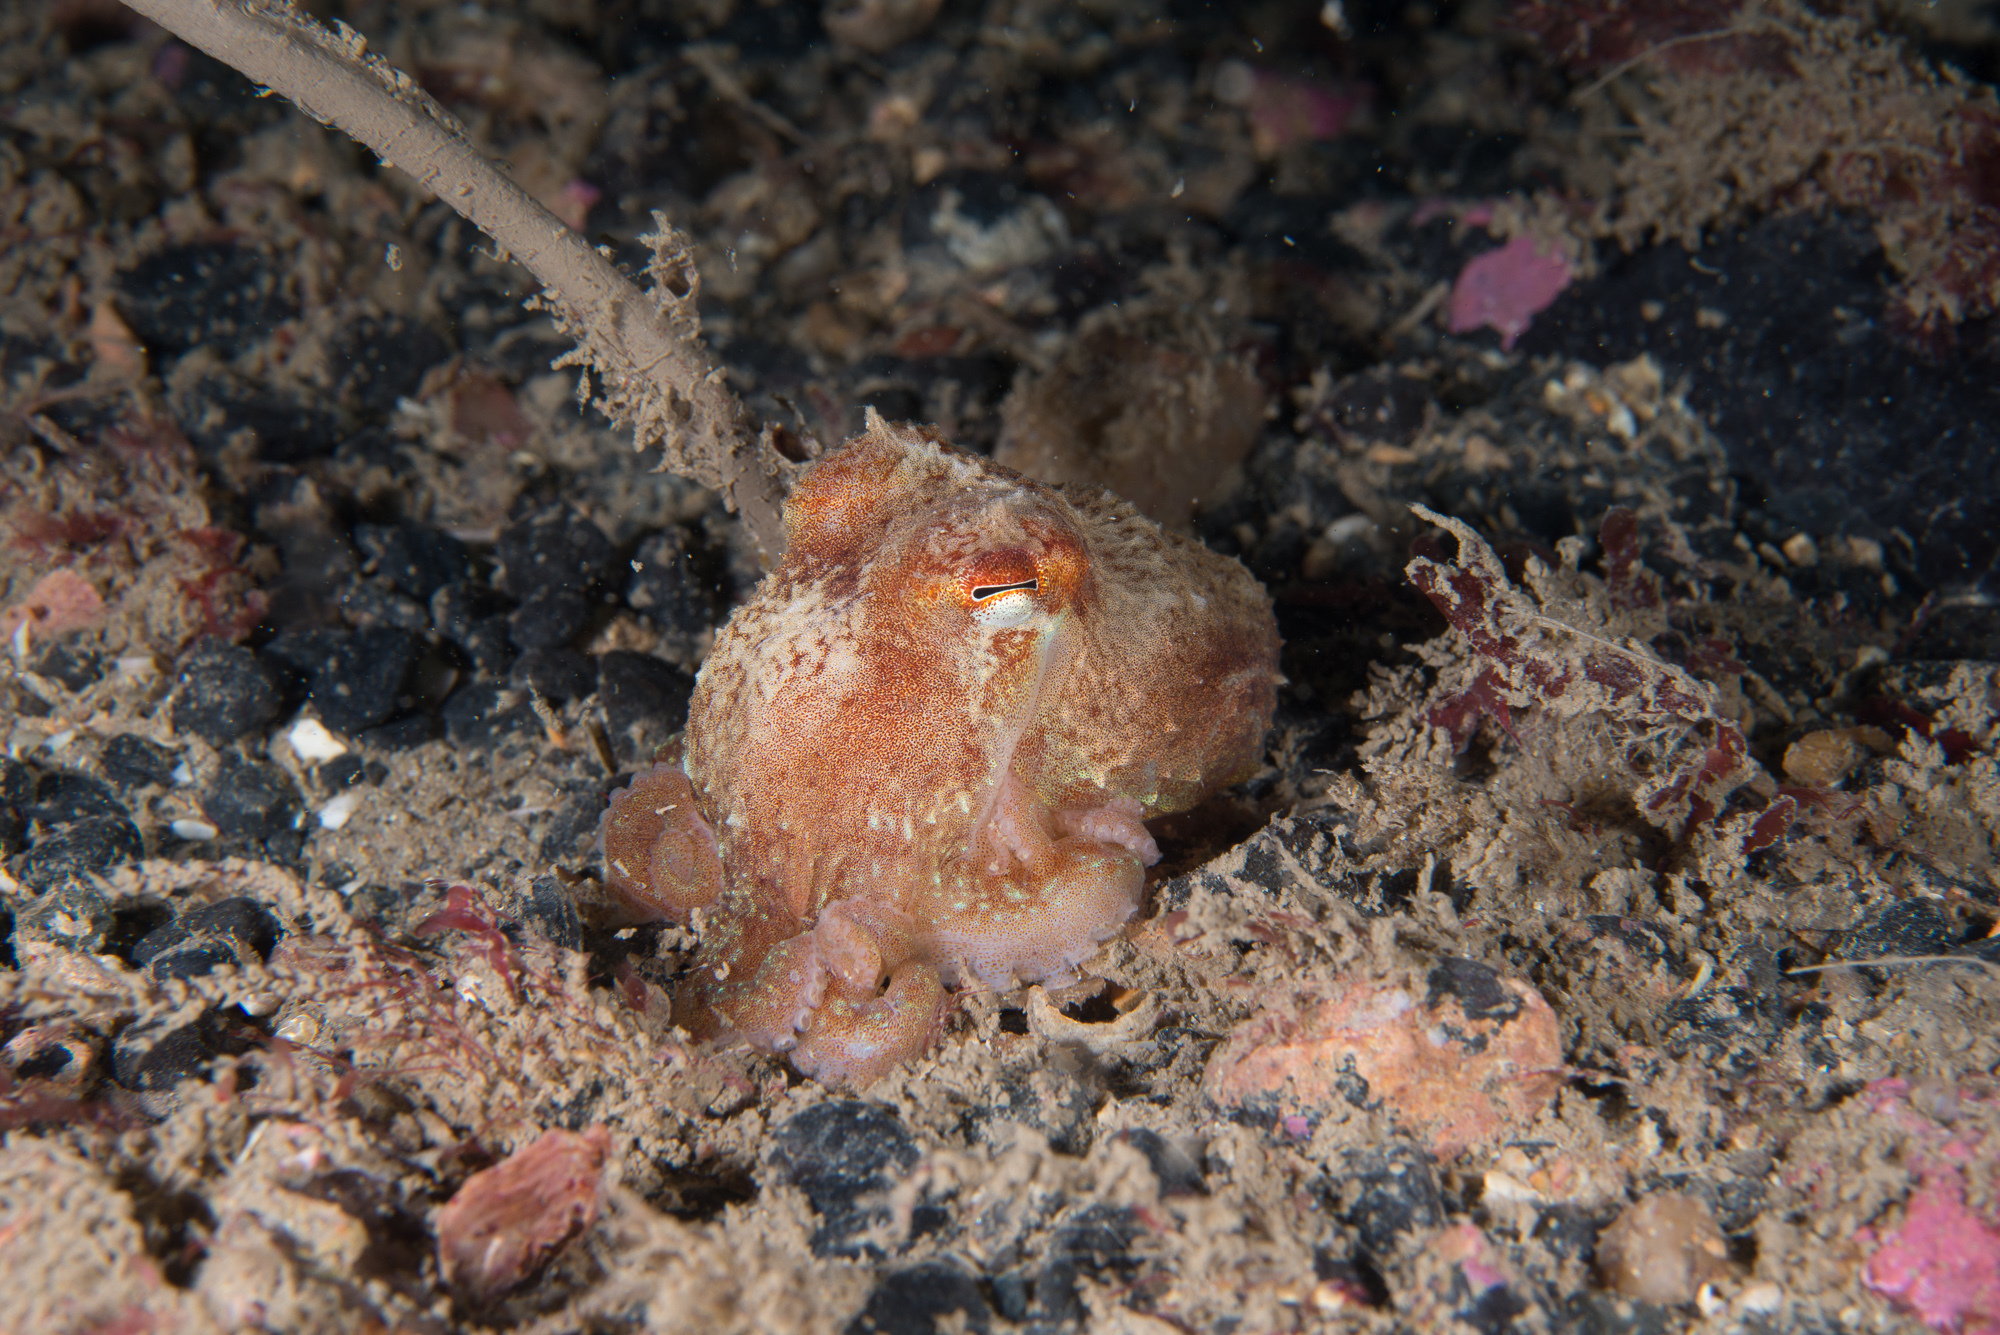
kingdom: Animalia
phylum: Mollusca
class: Cephalopoda
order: Octopoda
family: Eledonidae
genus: Eledone
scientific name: Eledone cirrhosa
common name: Curled octopus
